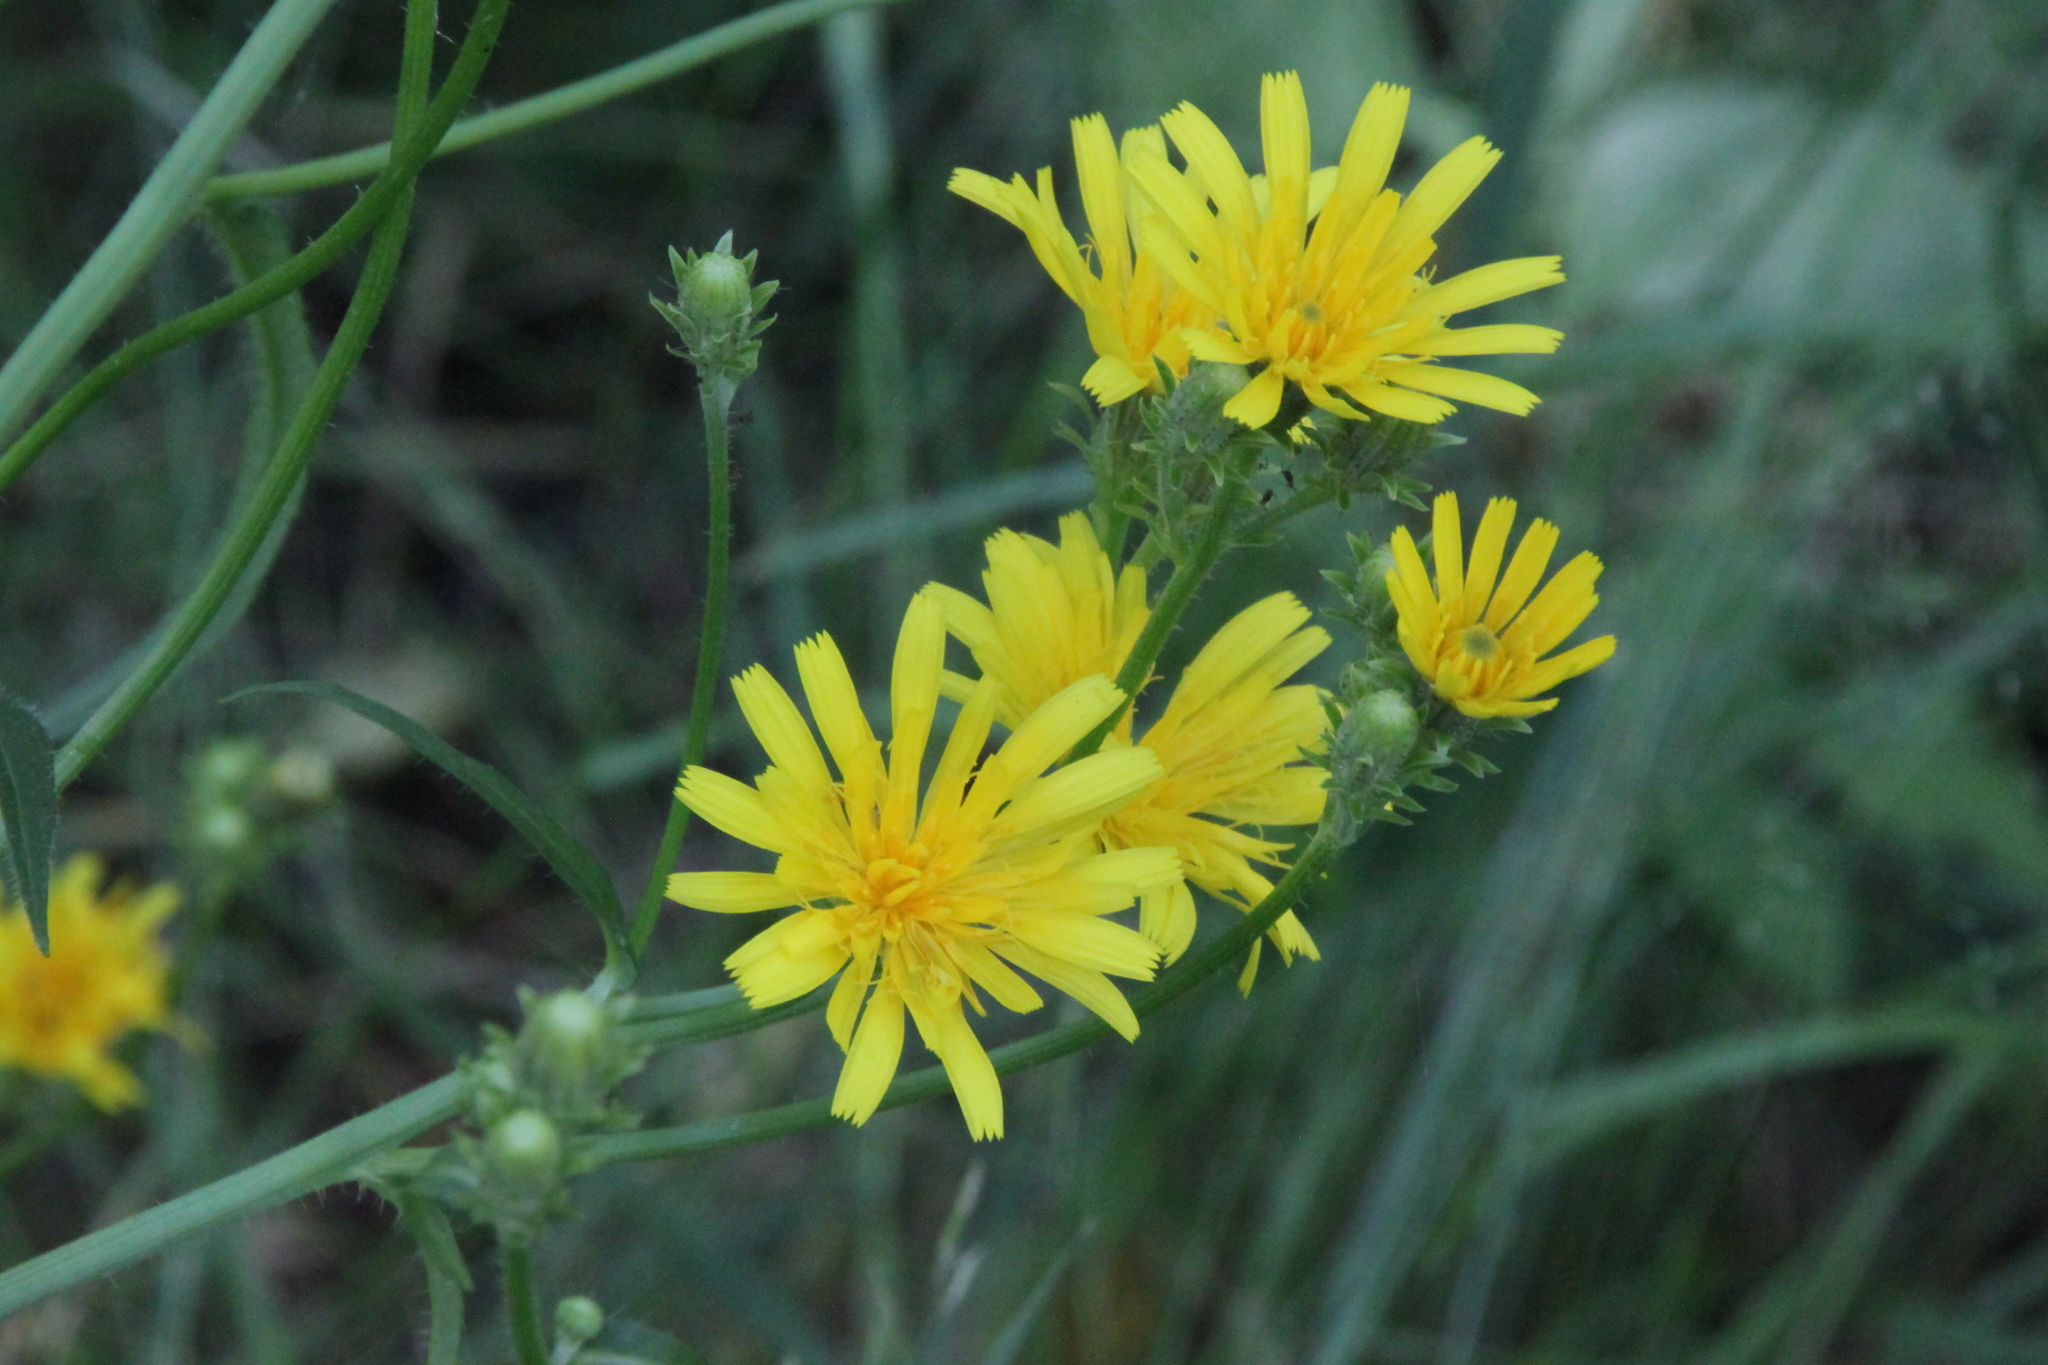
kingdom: Plantae
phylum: Tracheophyta
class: Magnoliopsida
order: Asterales
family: Asteraceae
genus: Picris
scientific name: Picris hieracioides
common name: Hawkweed oxtongue
